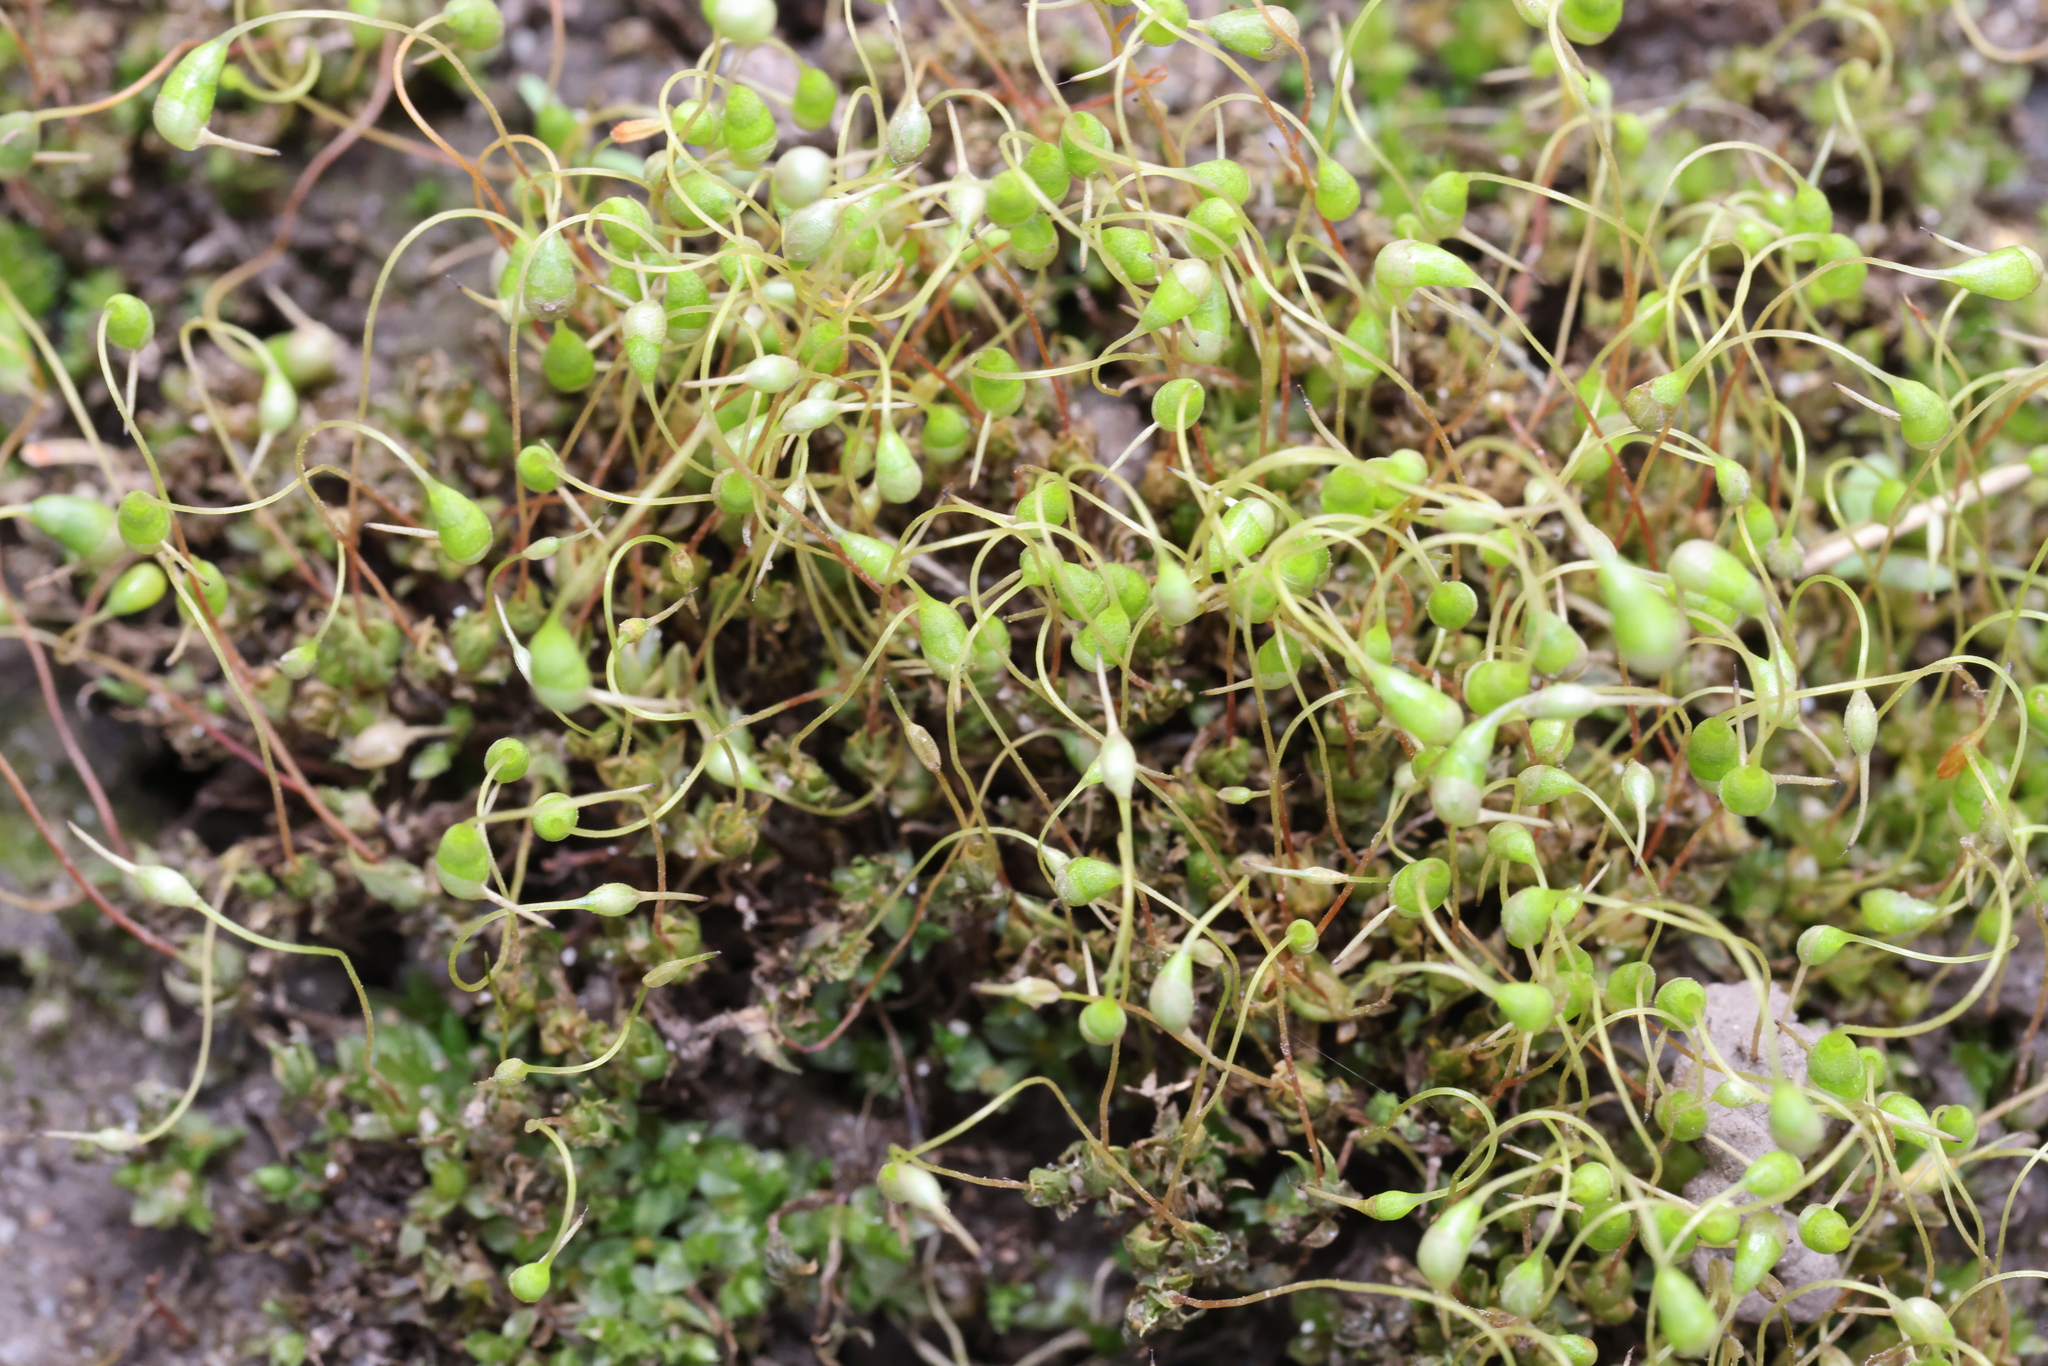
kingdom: Plantae
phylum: Bryophyta
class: Bryopsida
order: Funariales
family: Funariaceae
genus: Funaria
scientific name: Funaria hygrometrica
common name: Common cord moss
